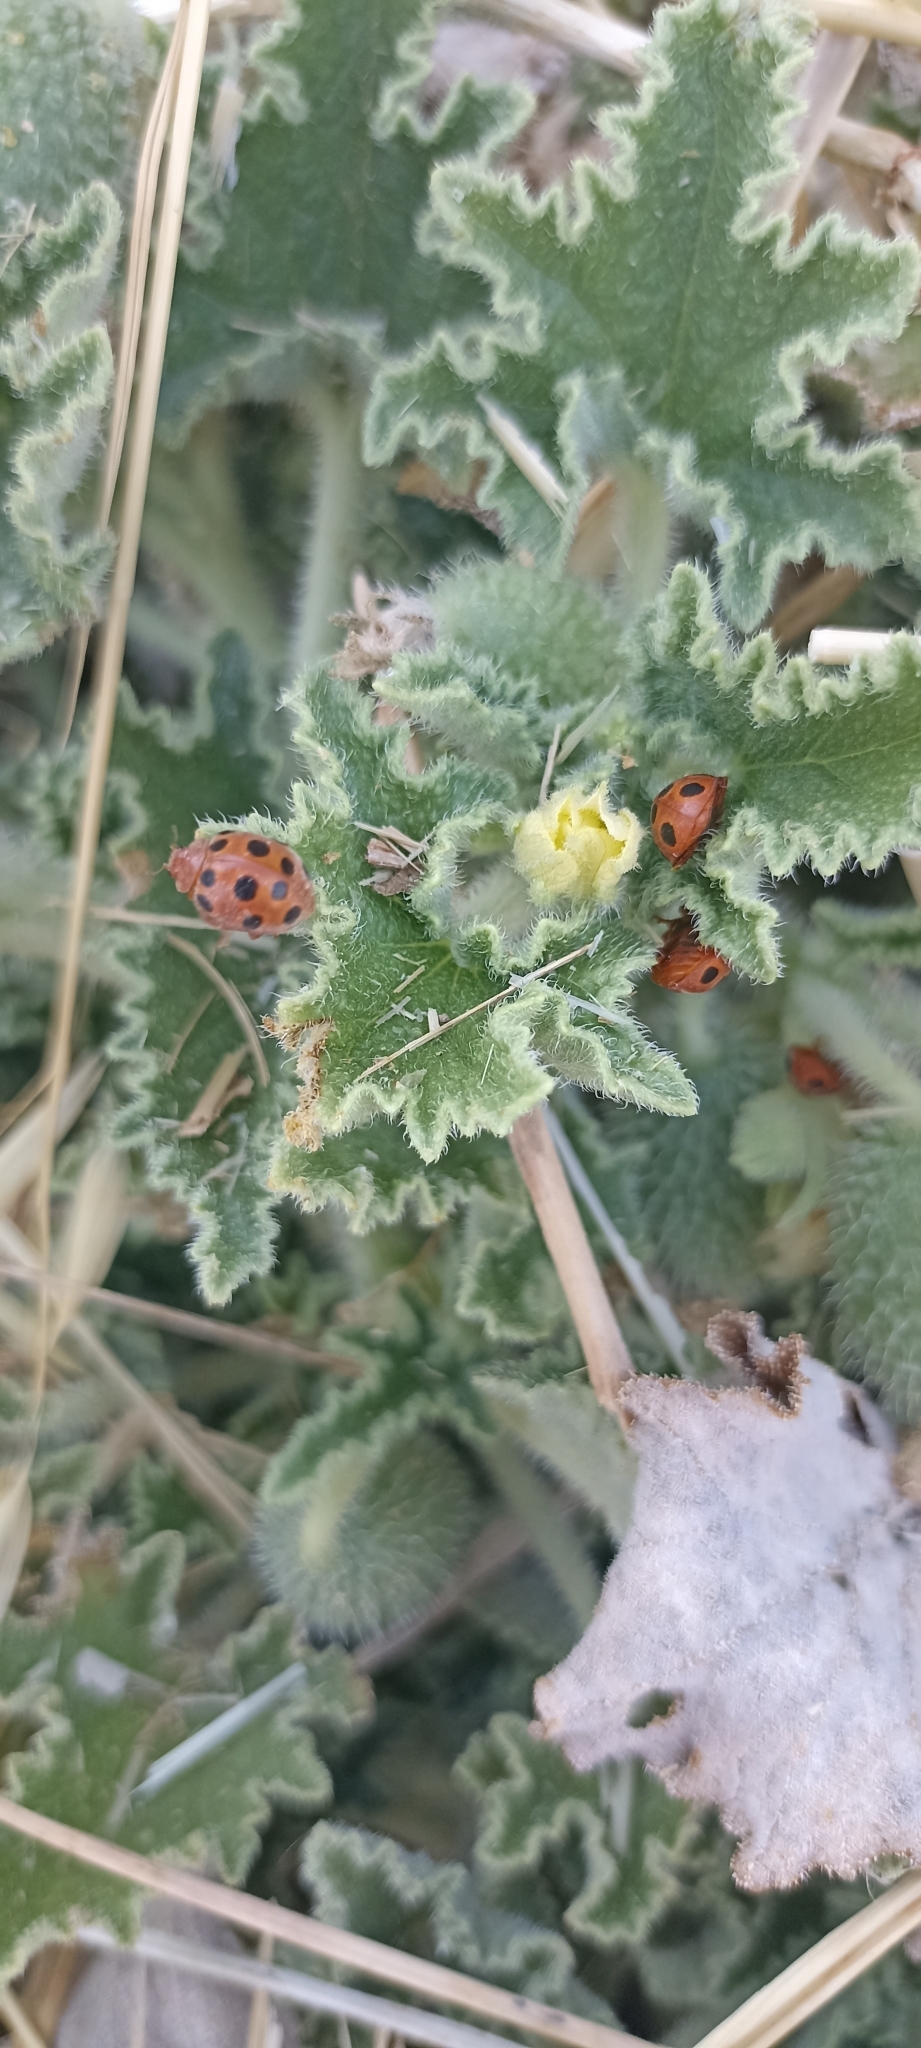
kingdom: Animalia
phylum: Arthropoda
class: Insecta
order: Coleoptera
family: Coccinellidae
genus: Chnootriba
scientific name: Chnootriba elaterii
